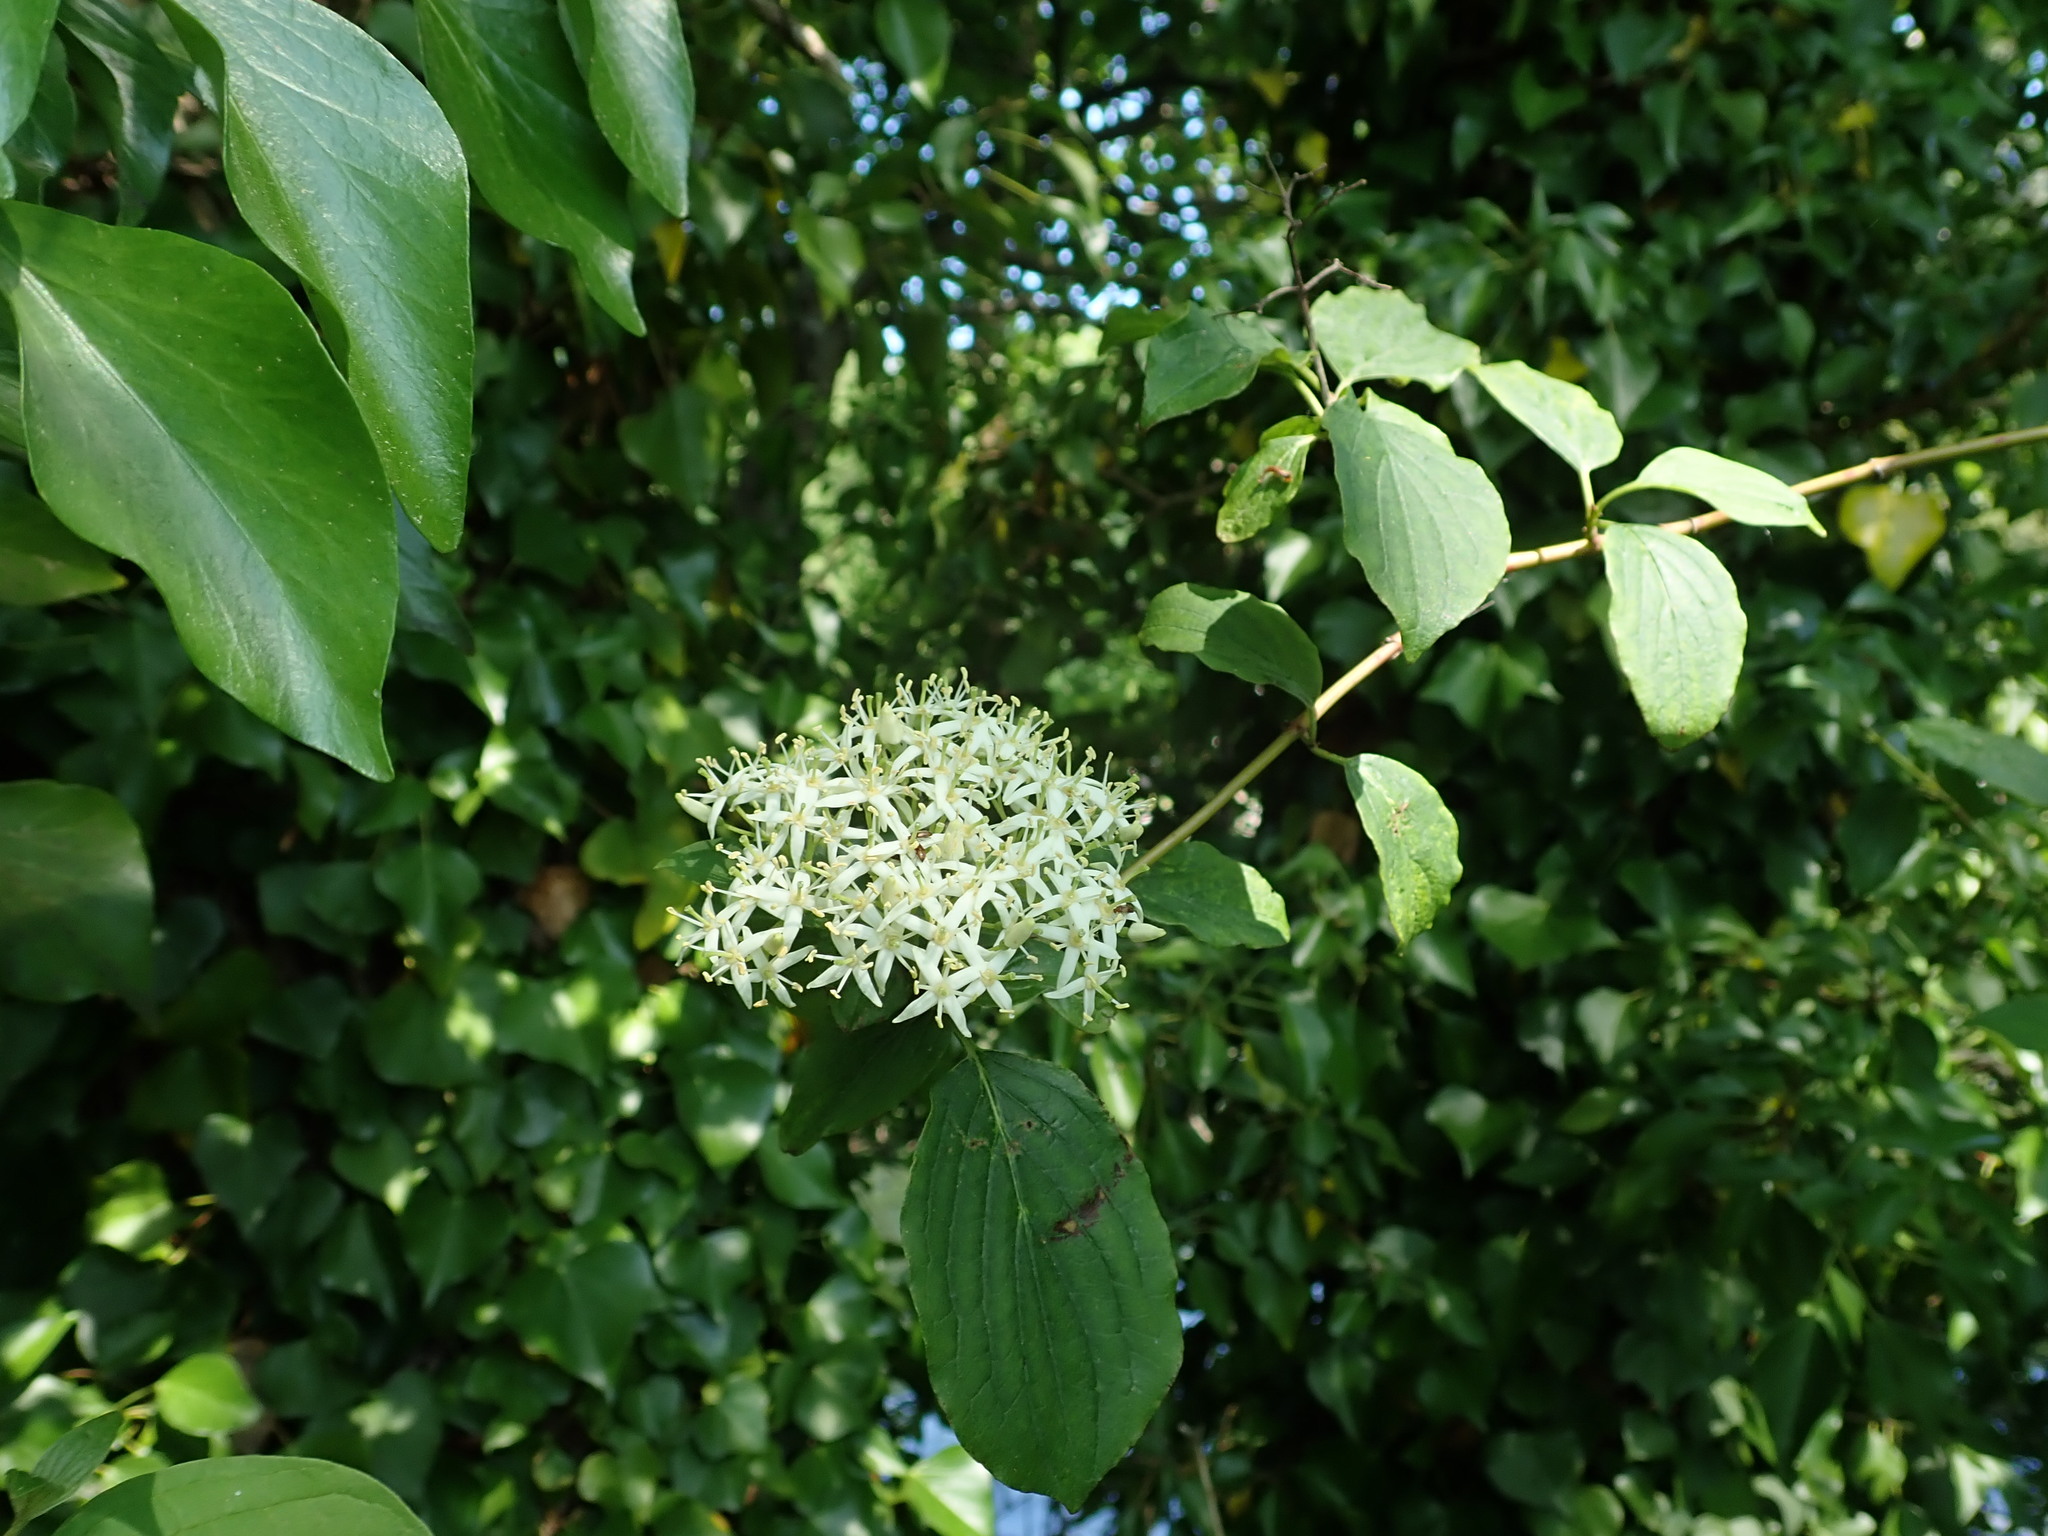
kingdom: Plantae
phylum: Tracheophyta
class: Magnoliopsida
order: Cornales
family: Cornaceae
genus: Cornus
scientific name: Cornus sanguinea
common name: Dogwood
